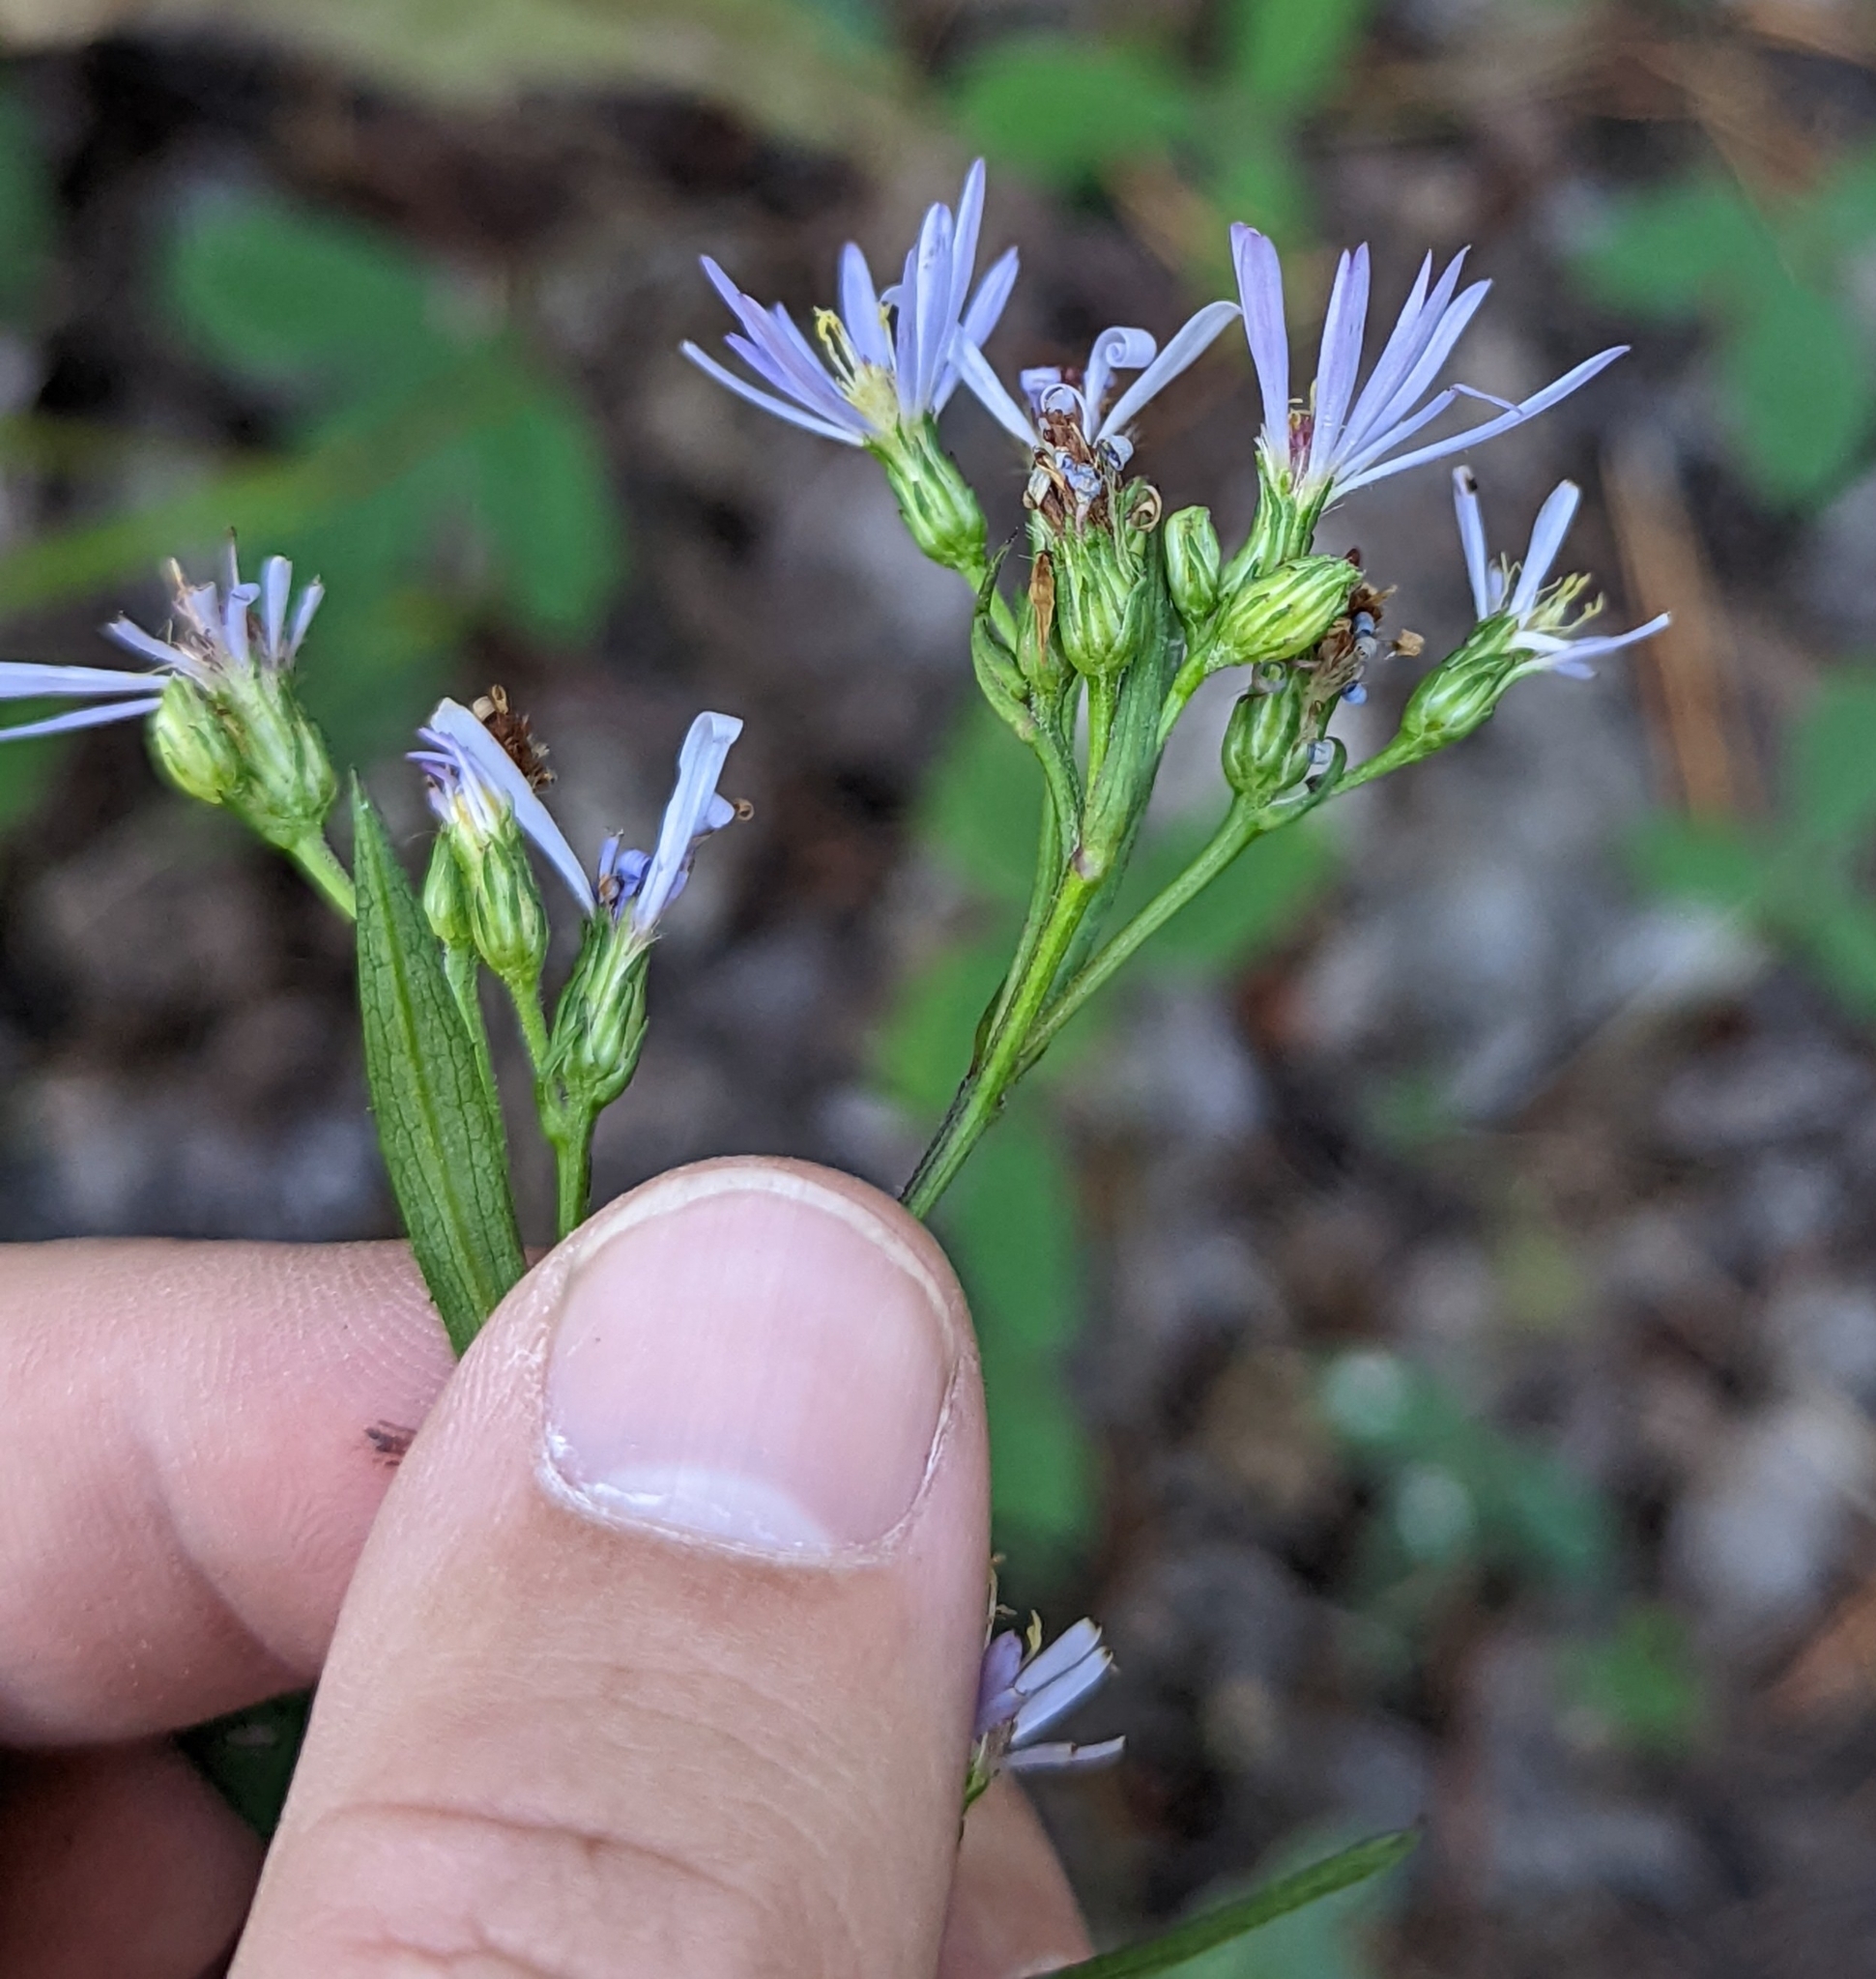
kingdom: Plantae
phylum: Tracheophyta
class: Magnoliopsida
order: Asterales
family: Asteraceae
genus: Symphyotrichum
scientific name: Symphyotrichum ciliolatum
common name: Fringed blue aster
